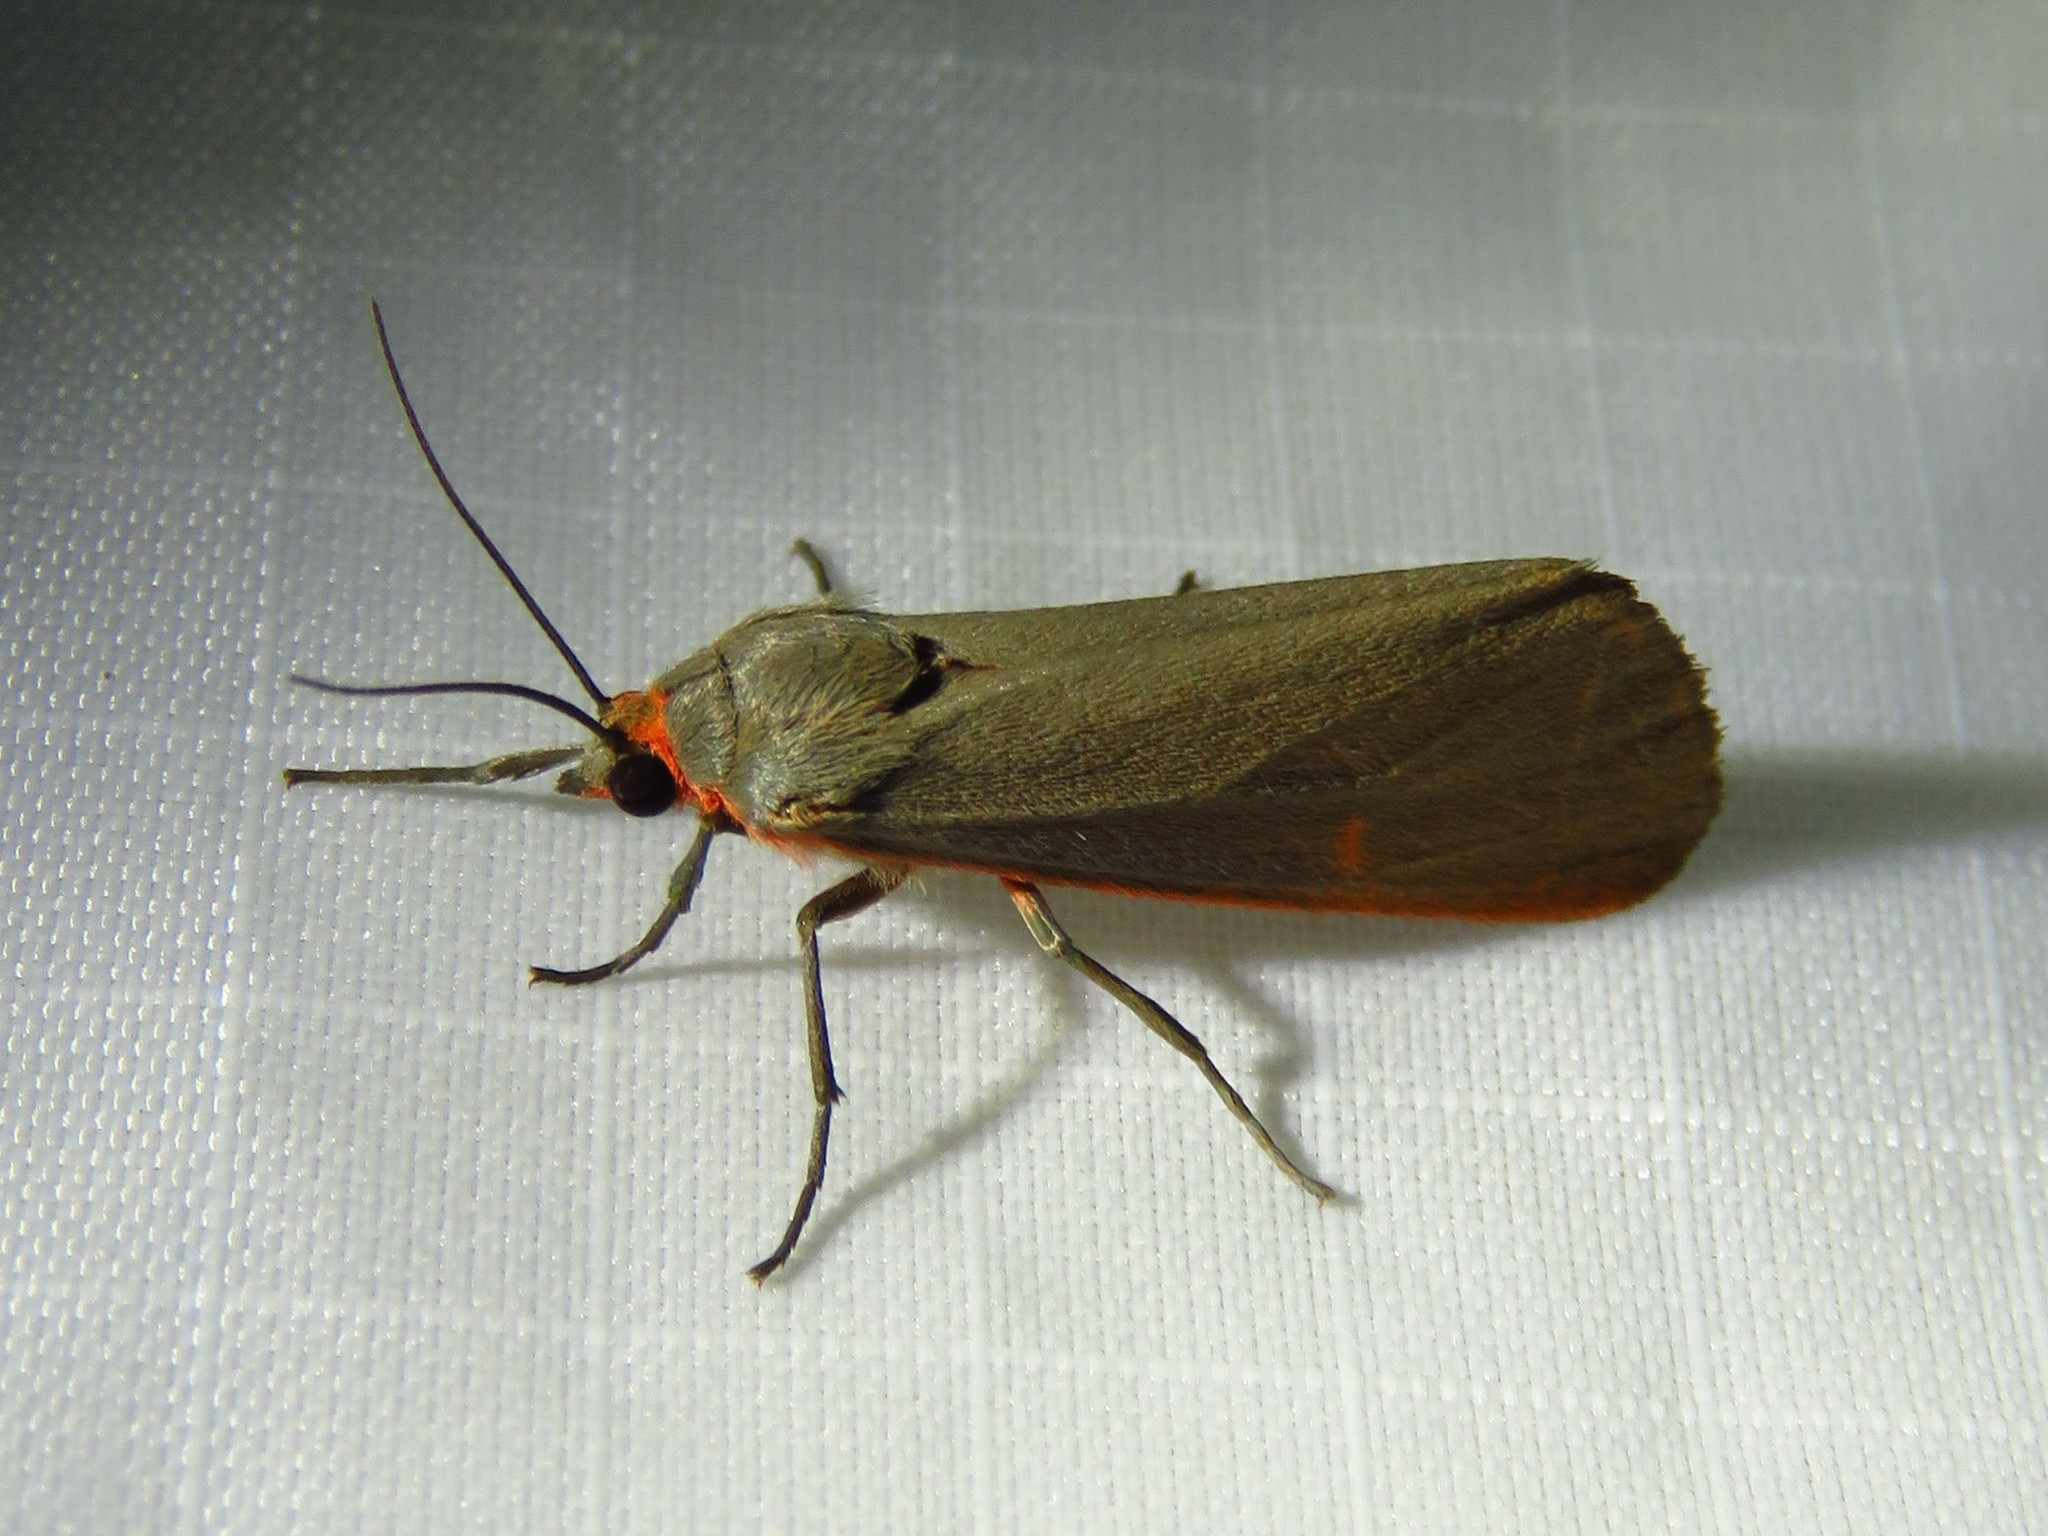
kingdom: Animalia
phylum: Arthropoda
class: Insecta
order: Lepidoptera
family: Erebidae
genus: Virbia
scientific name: Virbia costata
